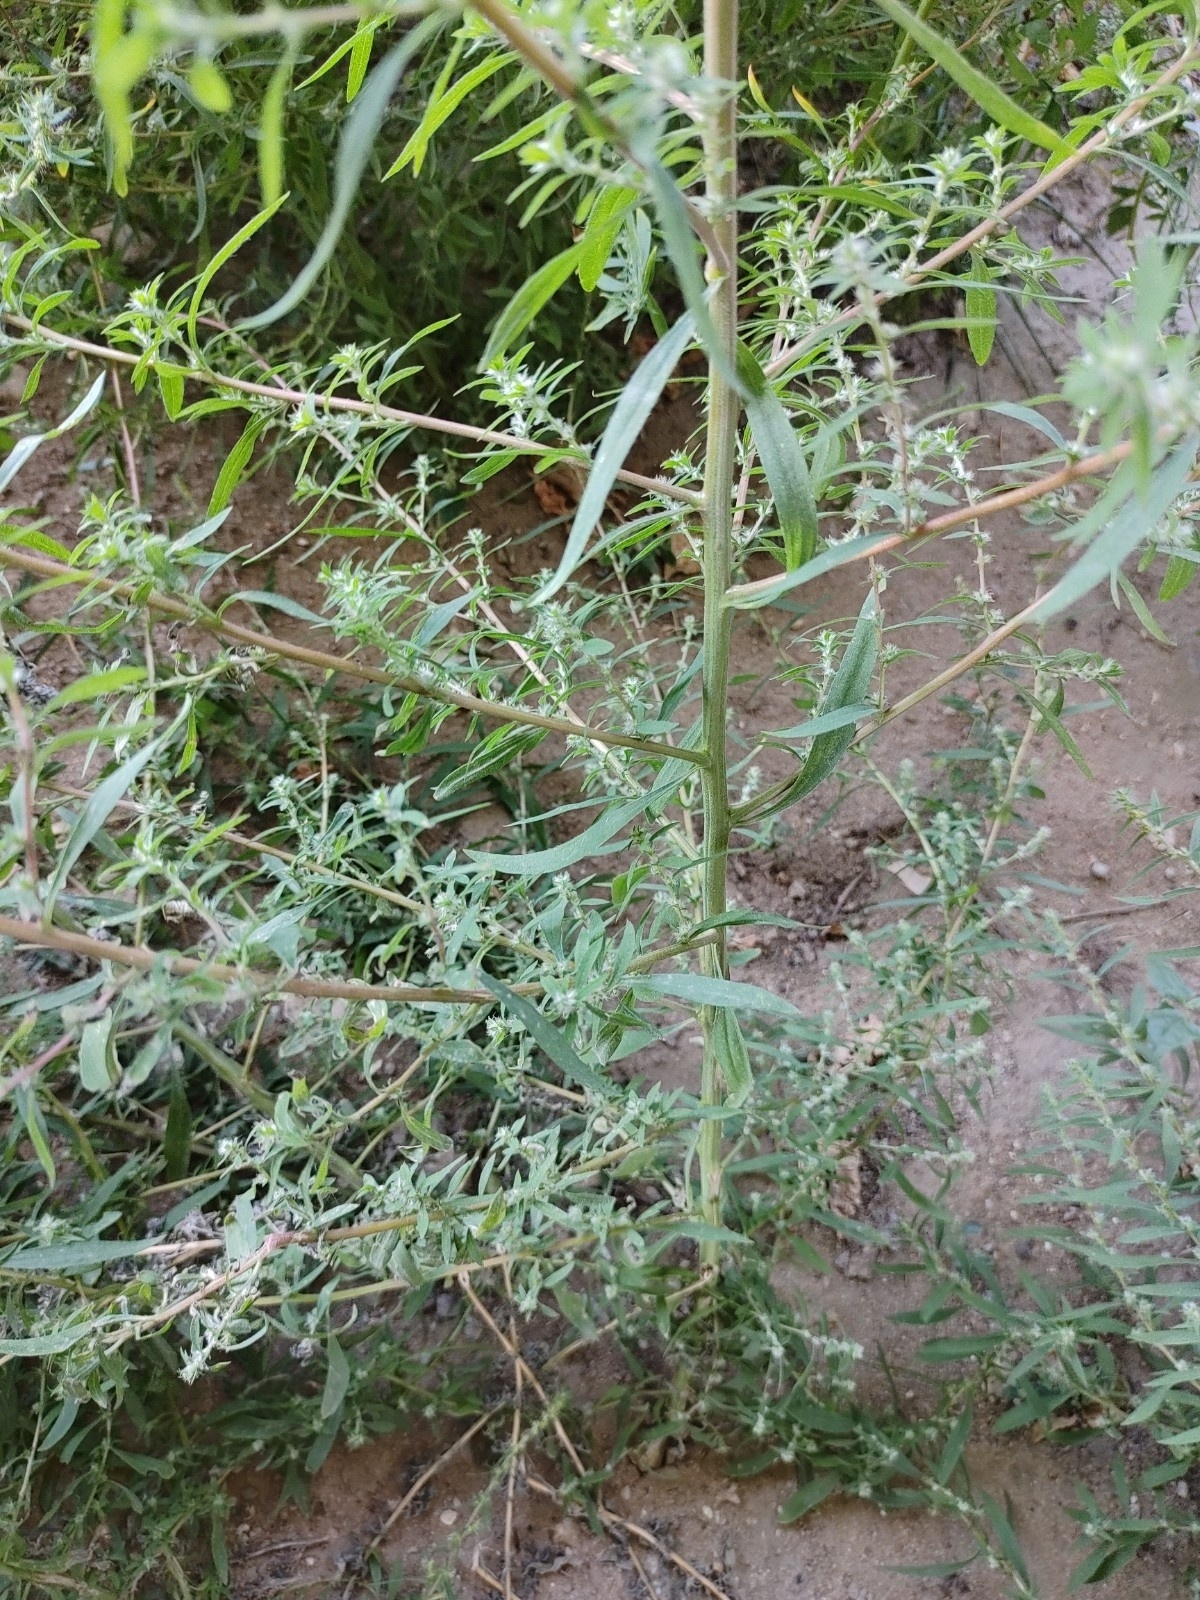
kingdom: Plantae
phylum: Tracheophyta
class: Magnoliopsida
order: Caryophyllales
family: Amaranthaceae
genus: Bassia
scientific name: Bassia scoparia
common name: Belvedere
